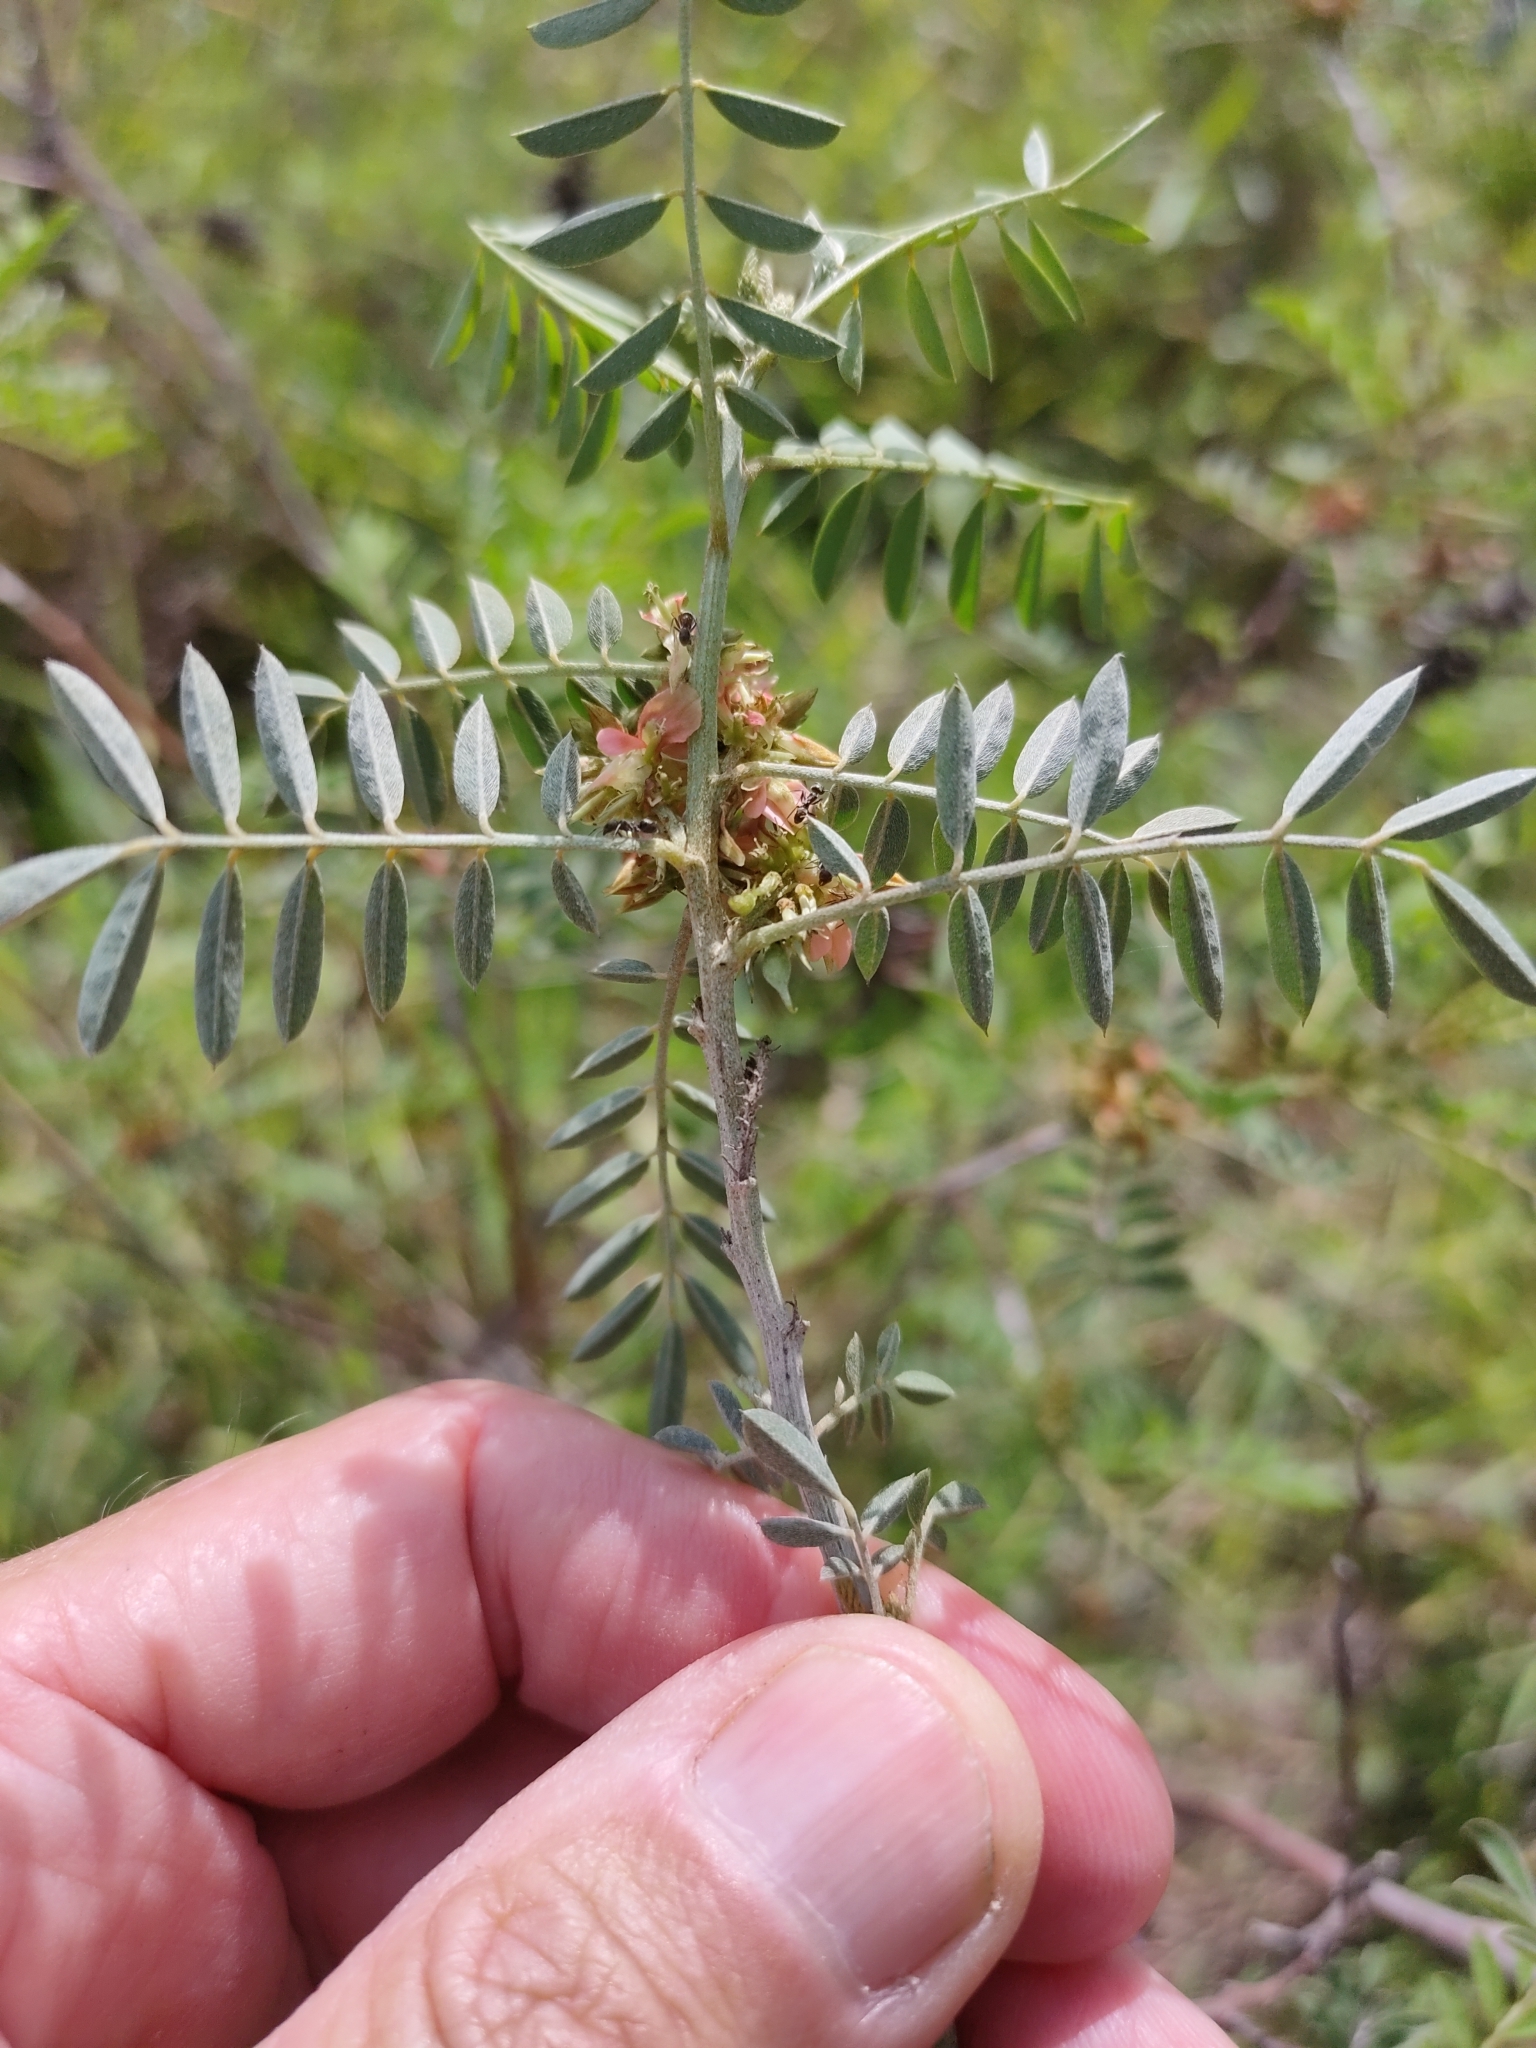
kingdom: Plantae
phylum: Tracheophyta
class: Magnoliopsida
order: Fabales
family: Fabaceae
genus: Indigofera
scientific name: Indigofera suffruticosa
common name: Anil de pasto
